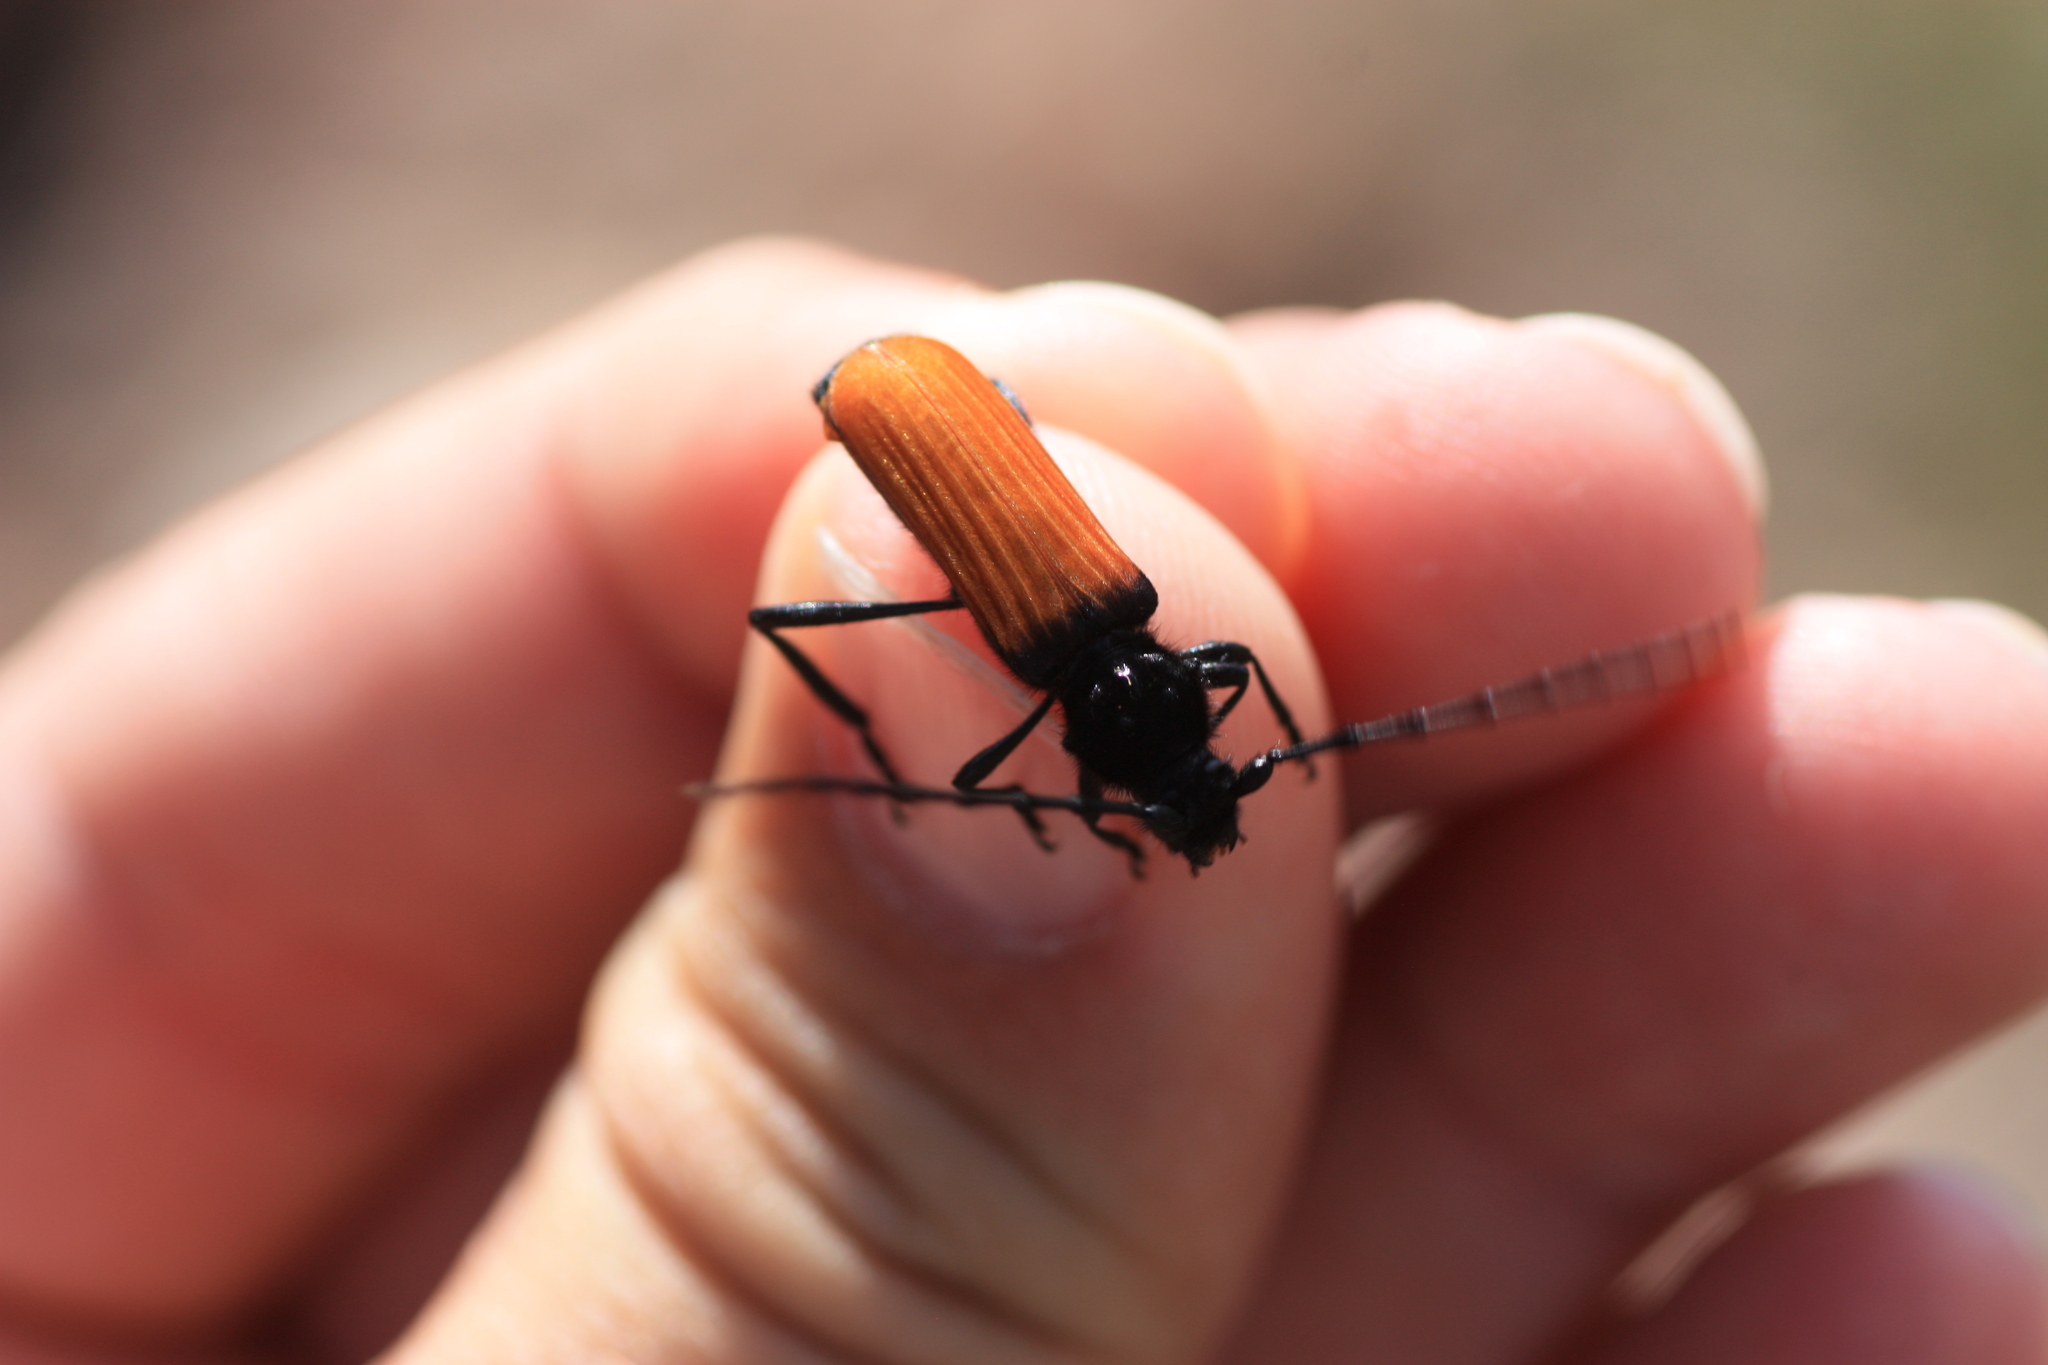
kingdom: Animalia
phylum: Arthropoda
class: Insecta
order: Coleoptera
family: Cerambycidae
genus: Tragidion
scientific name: Tragidion coquus
